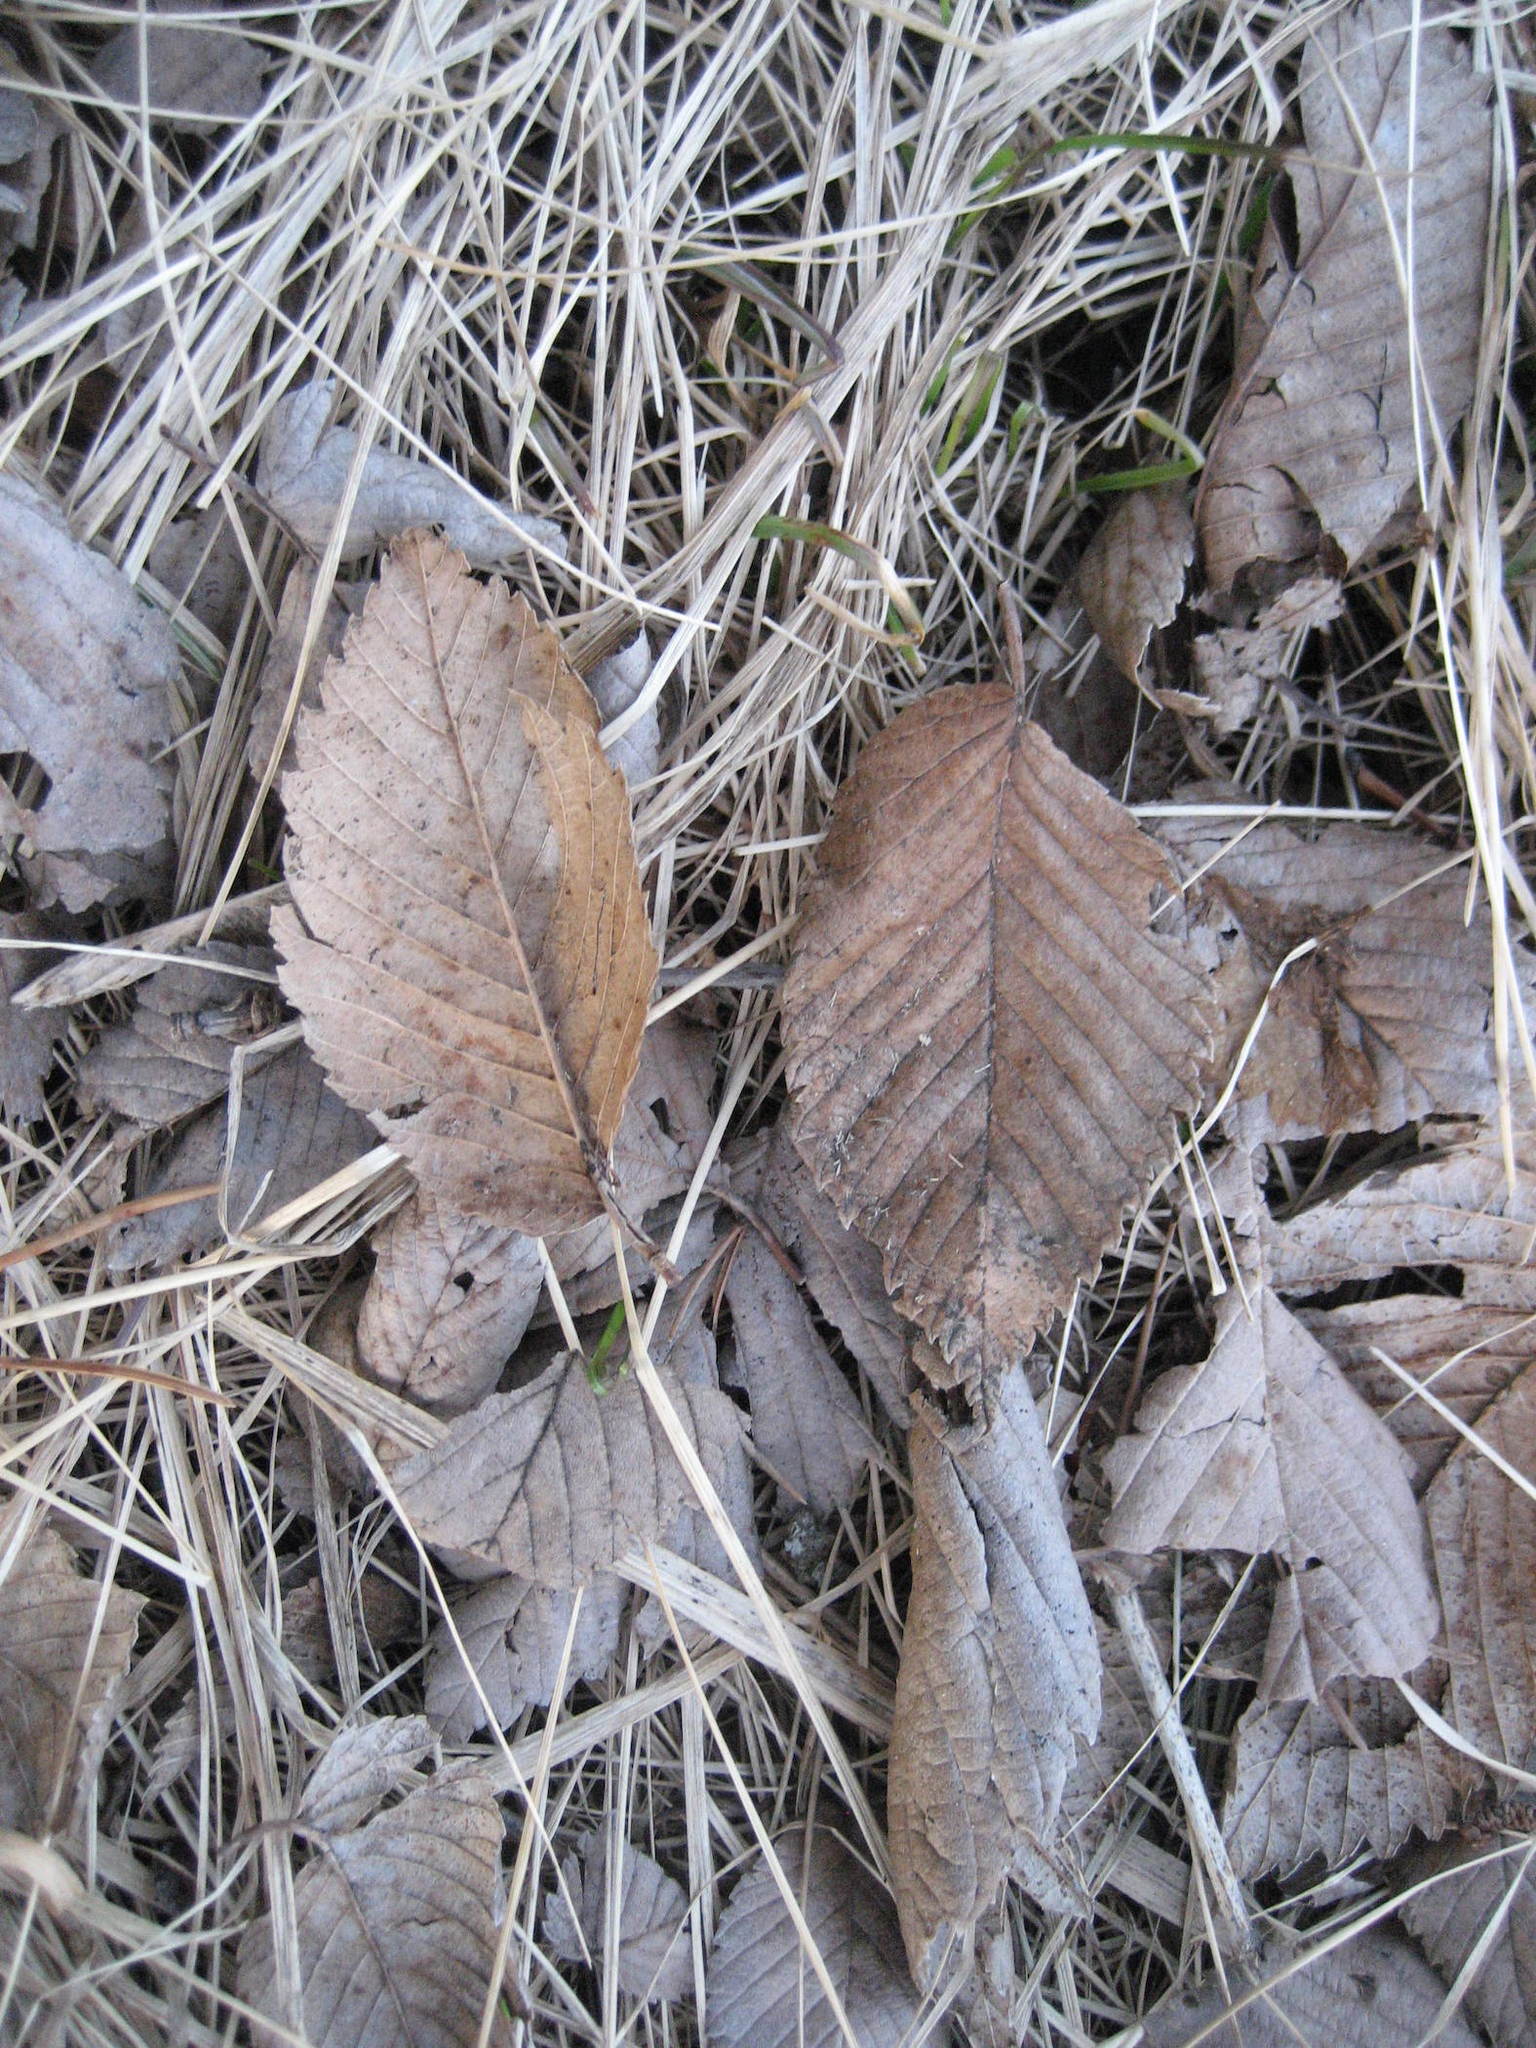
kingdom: Plantae
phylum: Tracheophyta
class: Magnoliopsida
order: Rosales
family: Ulmaceae
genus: Ulmus
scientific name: Ulmus americana
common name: American elm
